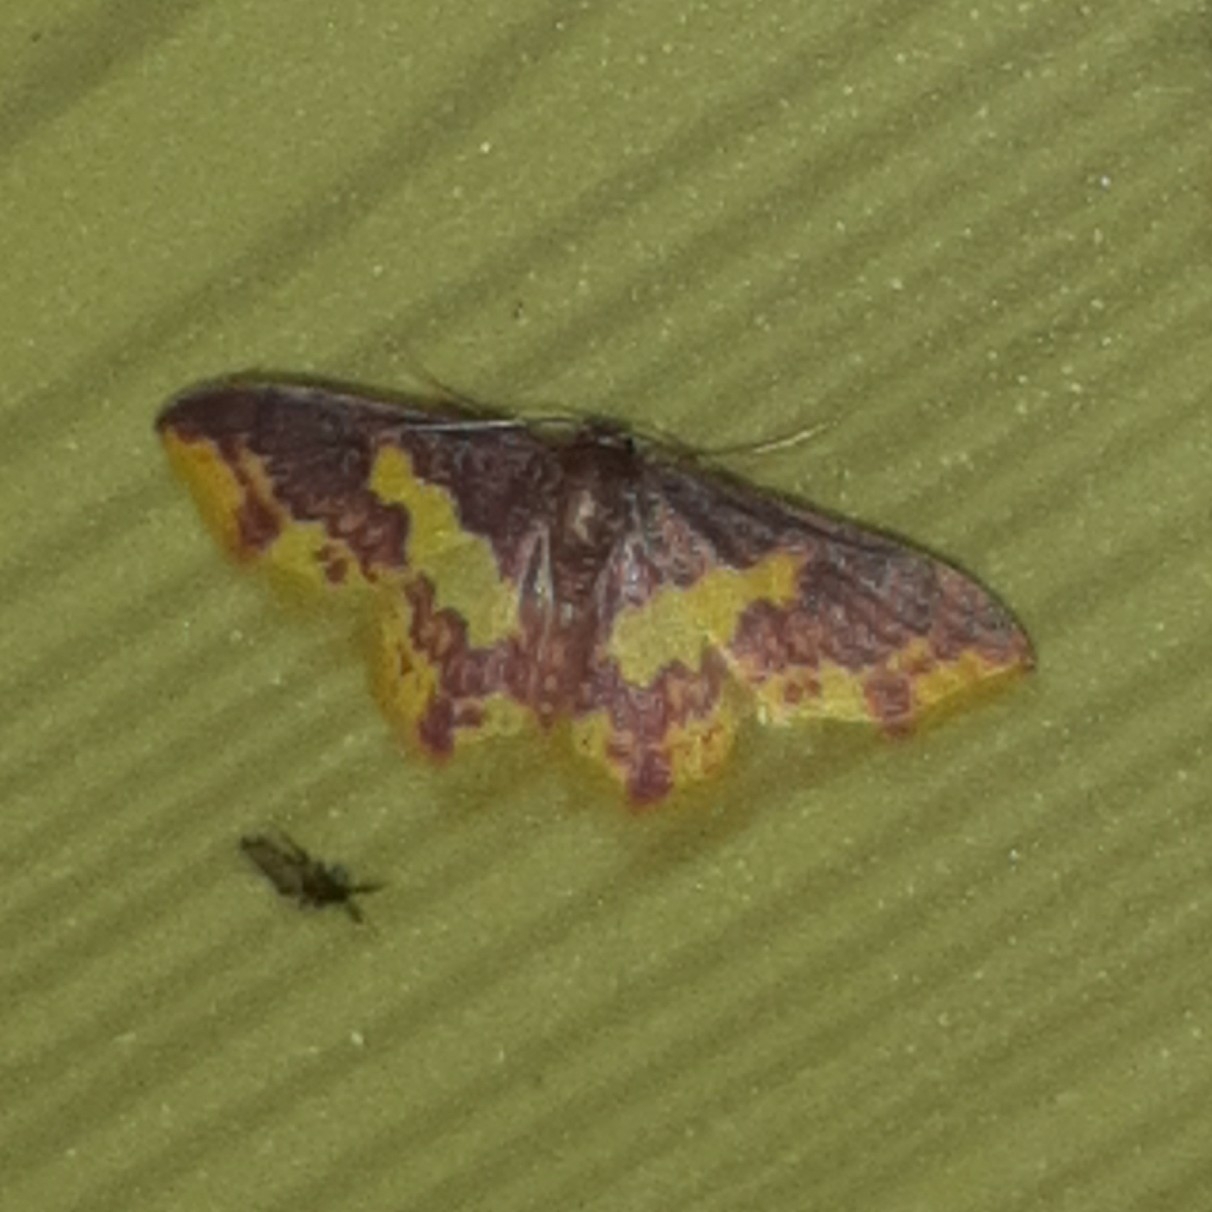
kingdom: Animalia
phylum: Arthropoda
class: Insecta
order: Lepidoptera
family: Geometridae
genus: Tricentrogyna
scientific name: Tricentrogyna violescens
